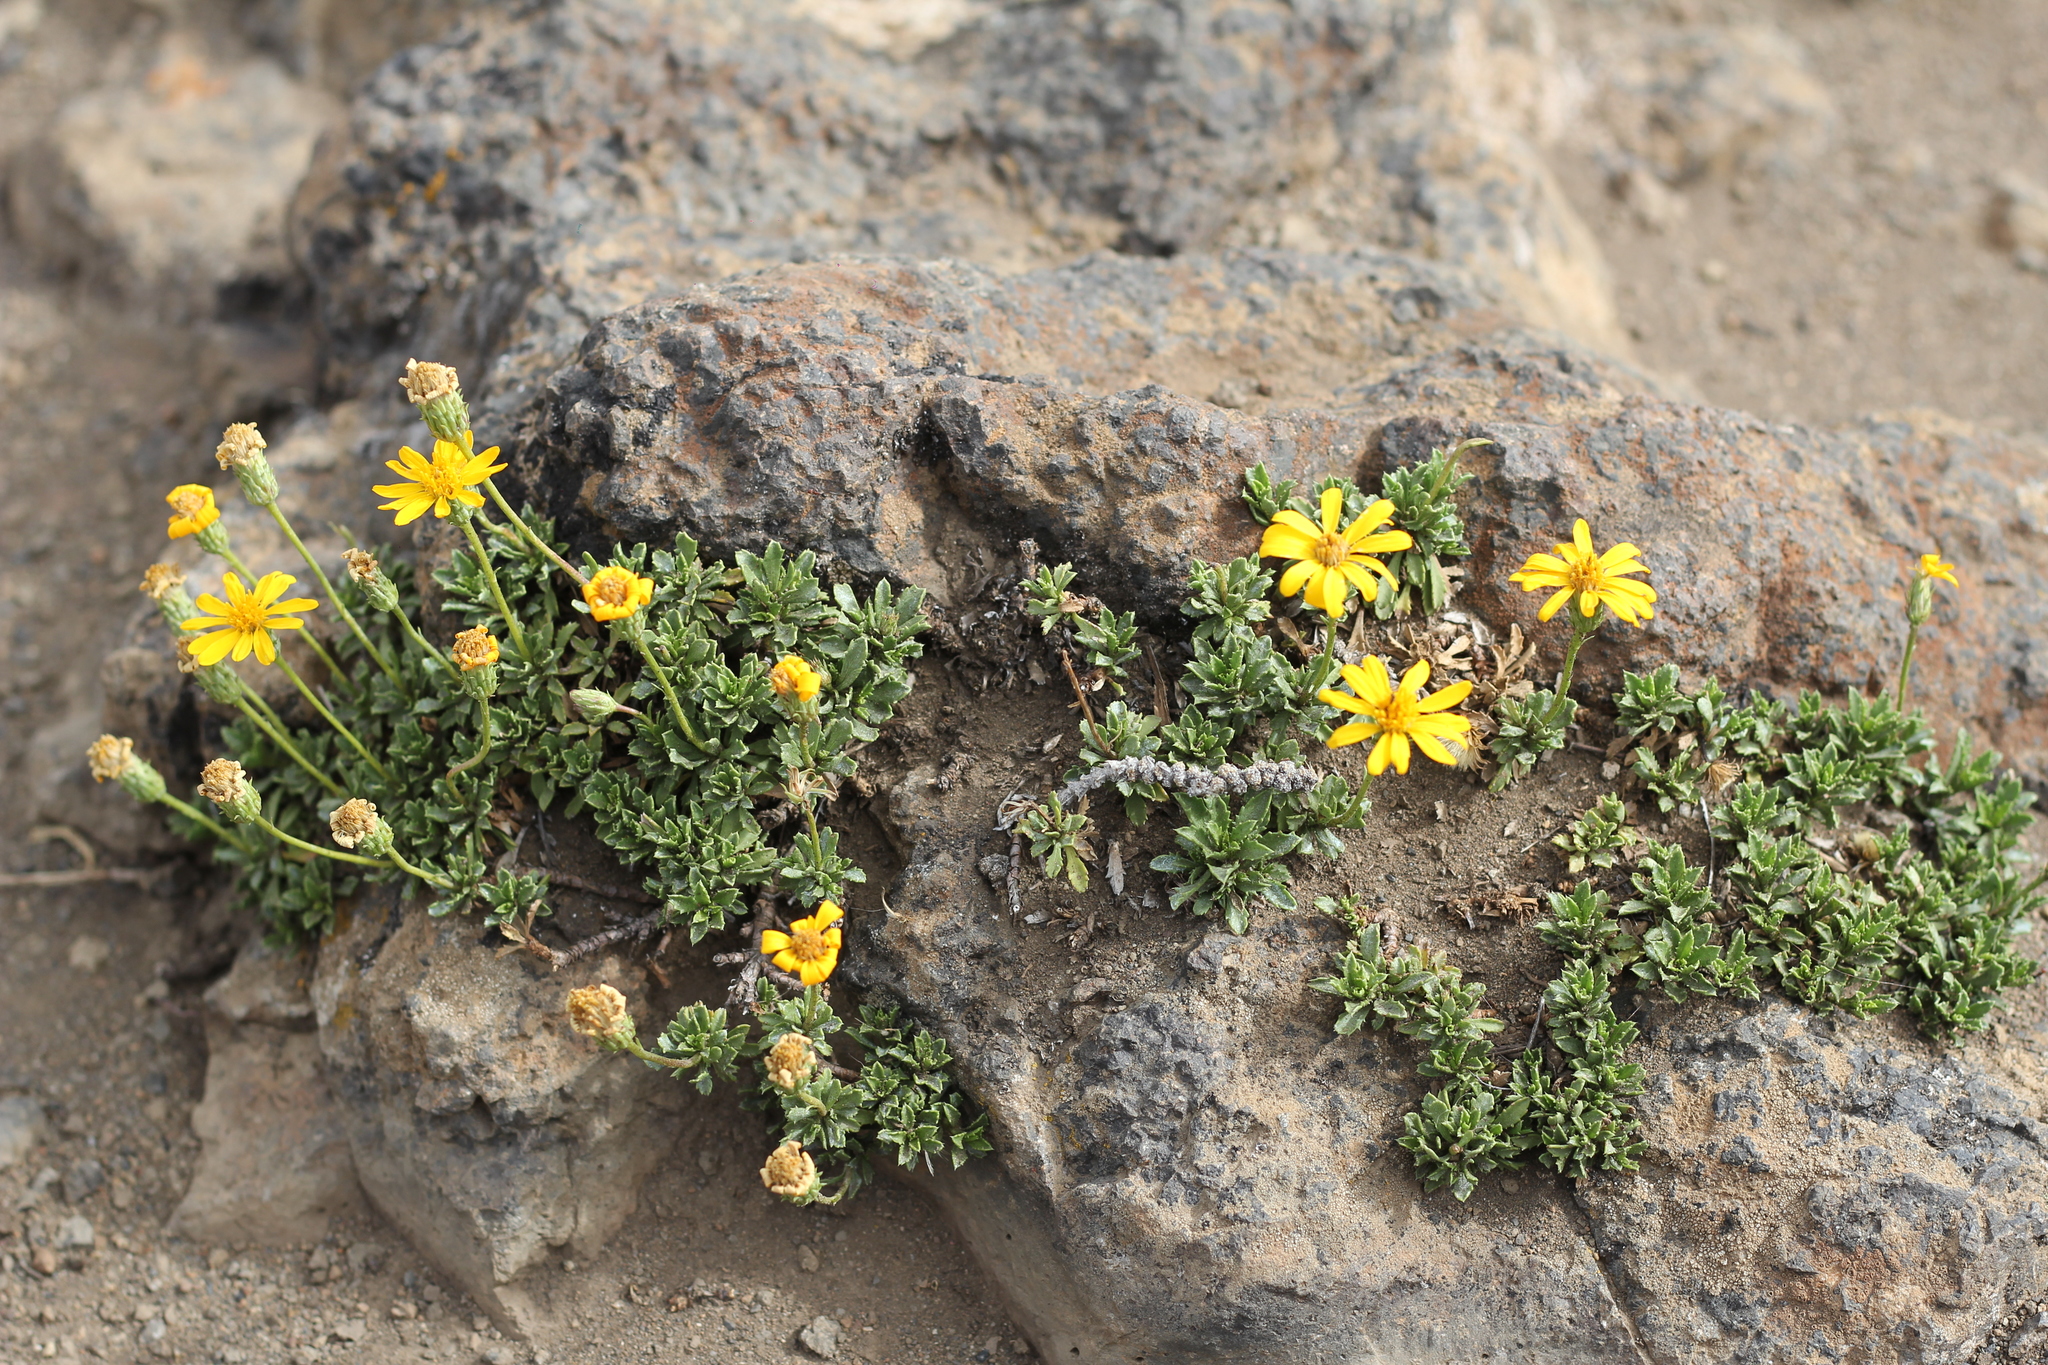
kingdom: Plantae
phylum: Tracheophyta
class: Magnoliopsida
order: Asterales
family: Asteraceae
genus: Notopappus
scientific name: Notopappus prunelloides
